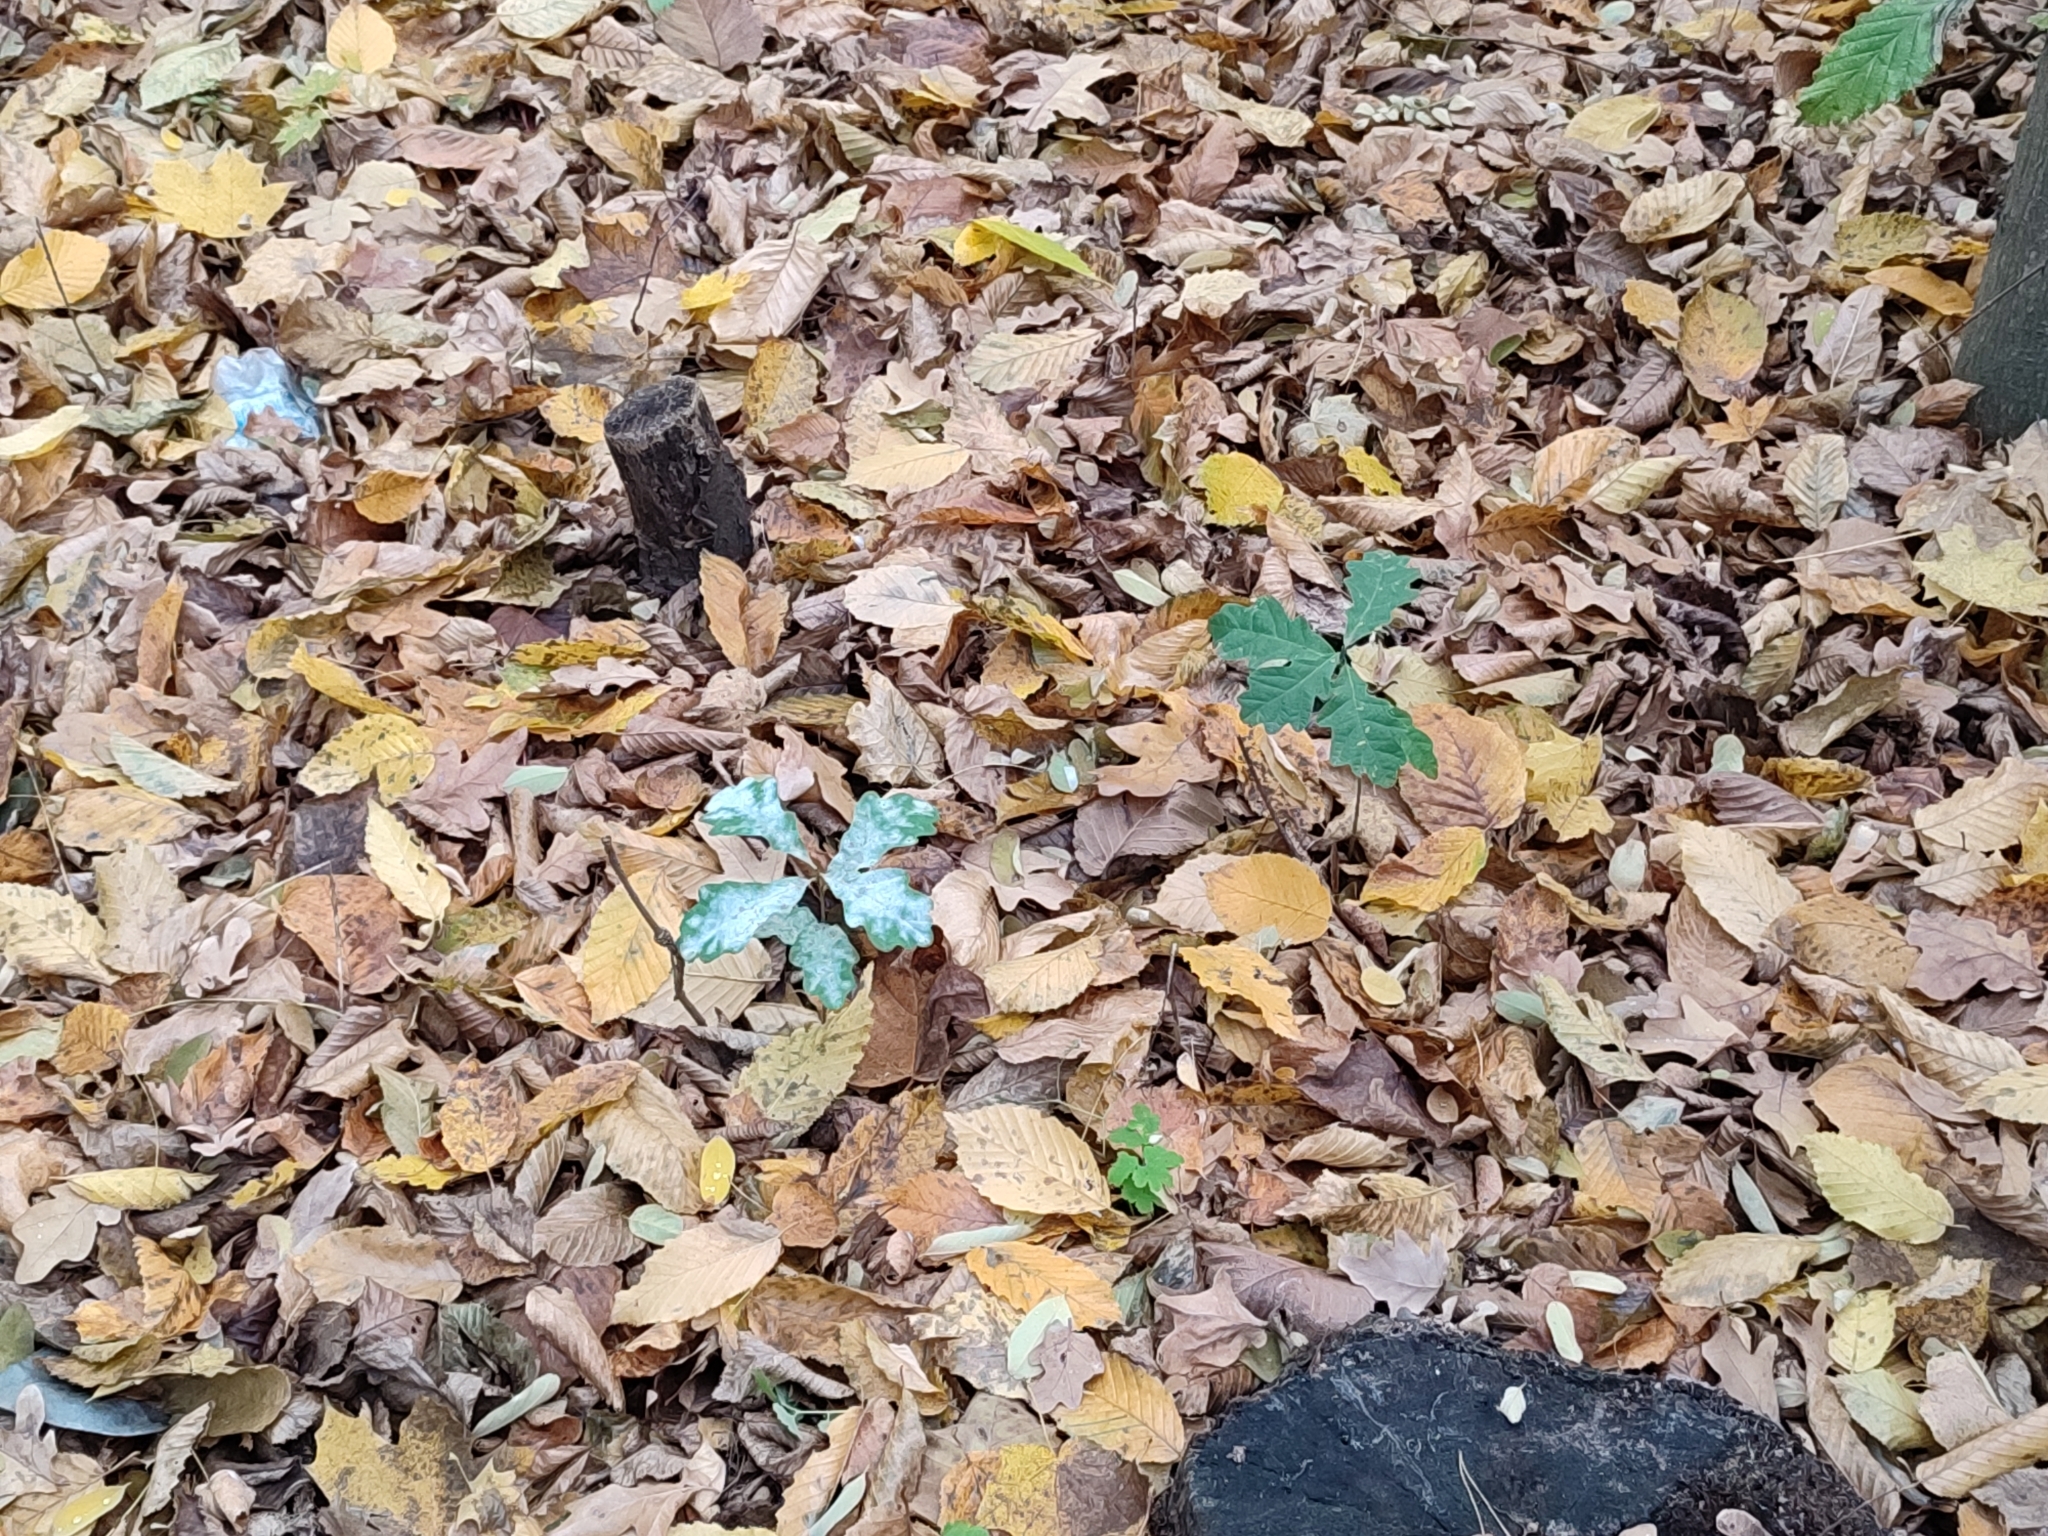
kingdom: Plantae
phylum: Tracheophyta
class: Magnoliopsida
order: Fagales
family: Fagaceae
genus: Quercus
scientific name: Quercus robur
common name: Pedunculate oak
